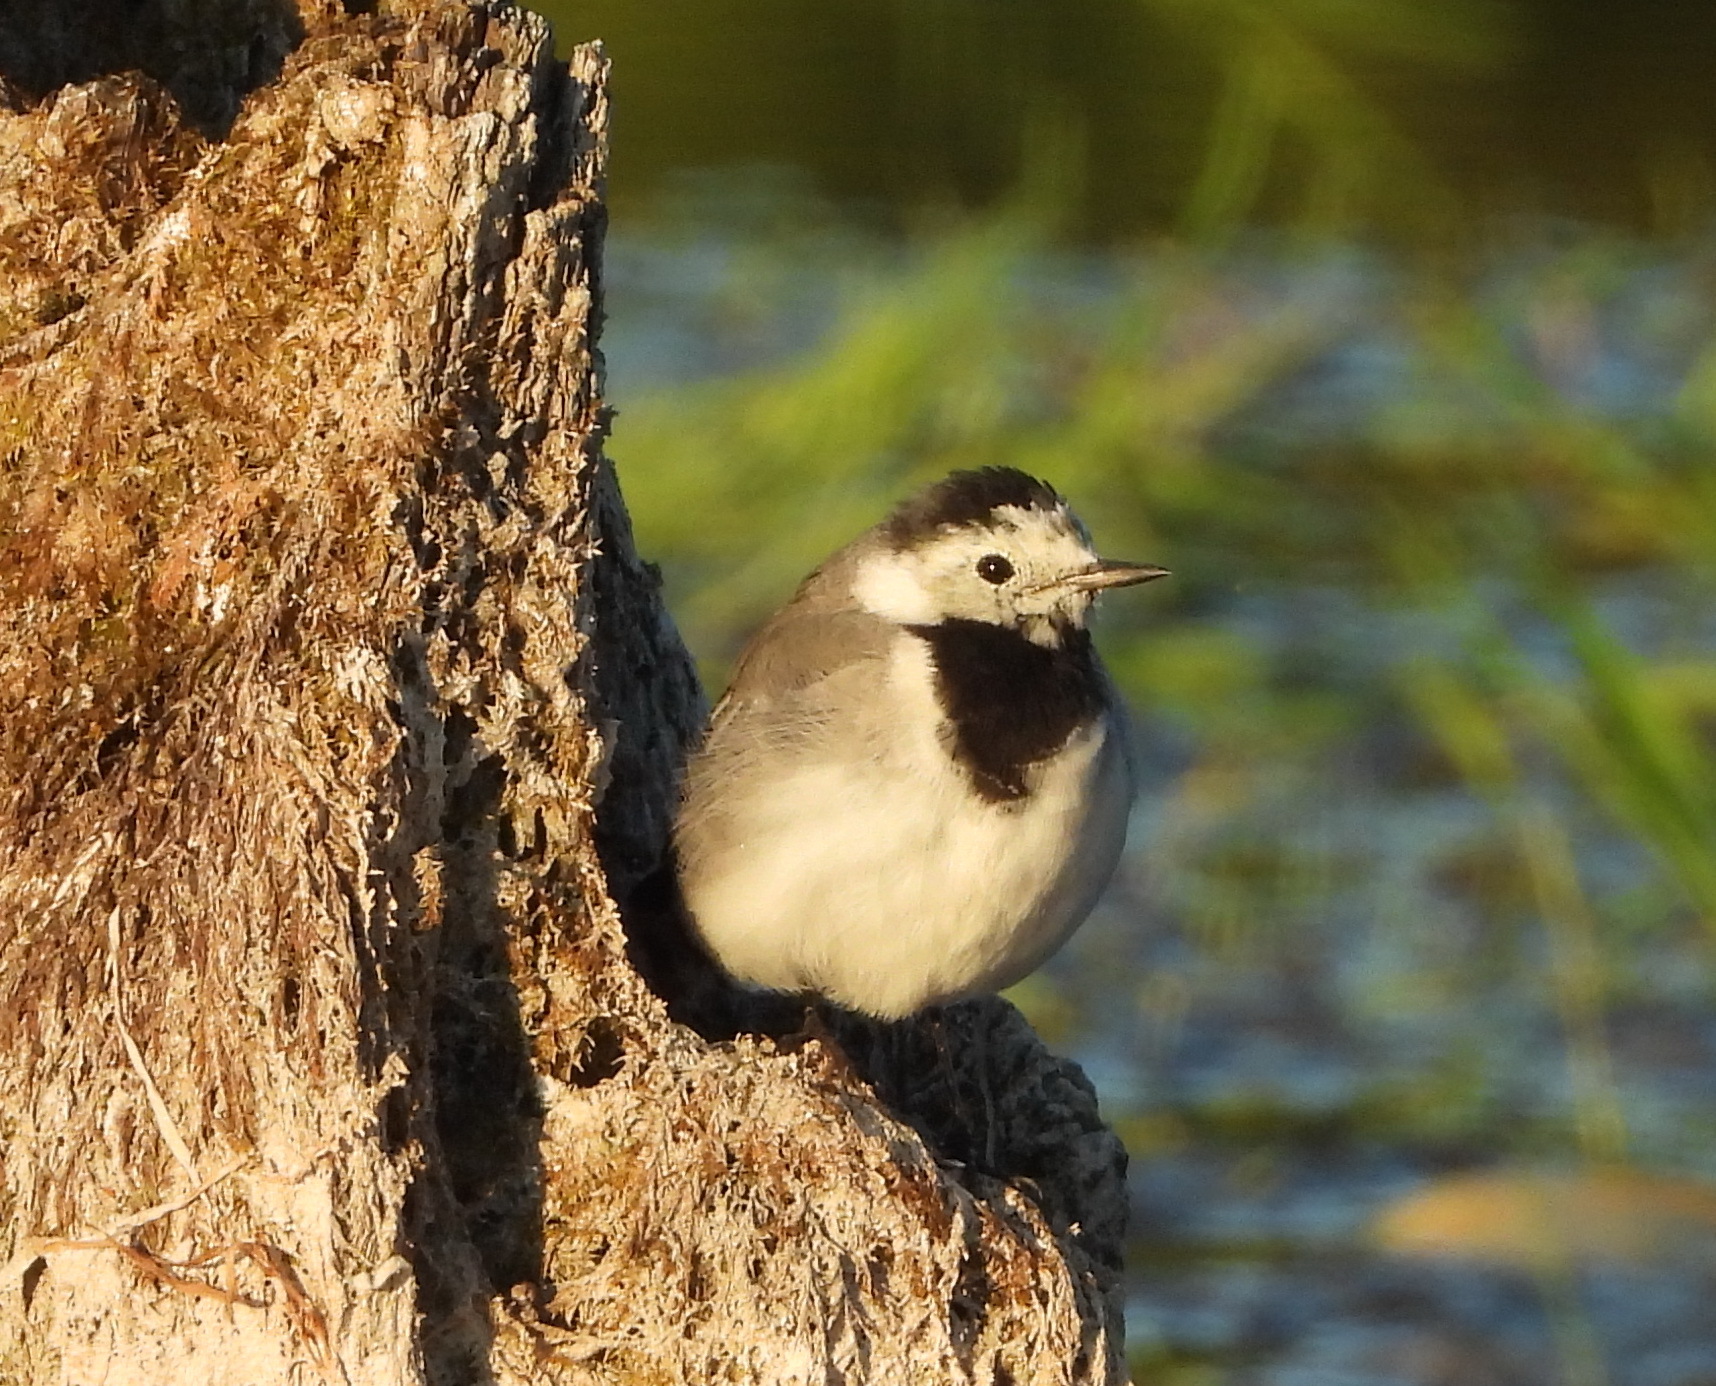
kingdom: Animalia
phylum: Chordata
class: Aves
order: Passeriformes
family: Motacillidae
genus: Motacilla
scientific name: Motacilla alba
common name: White wagtail
